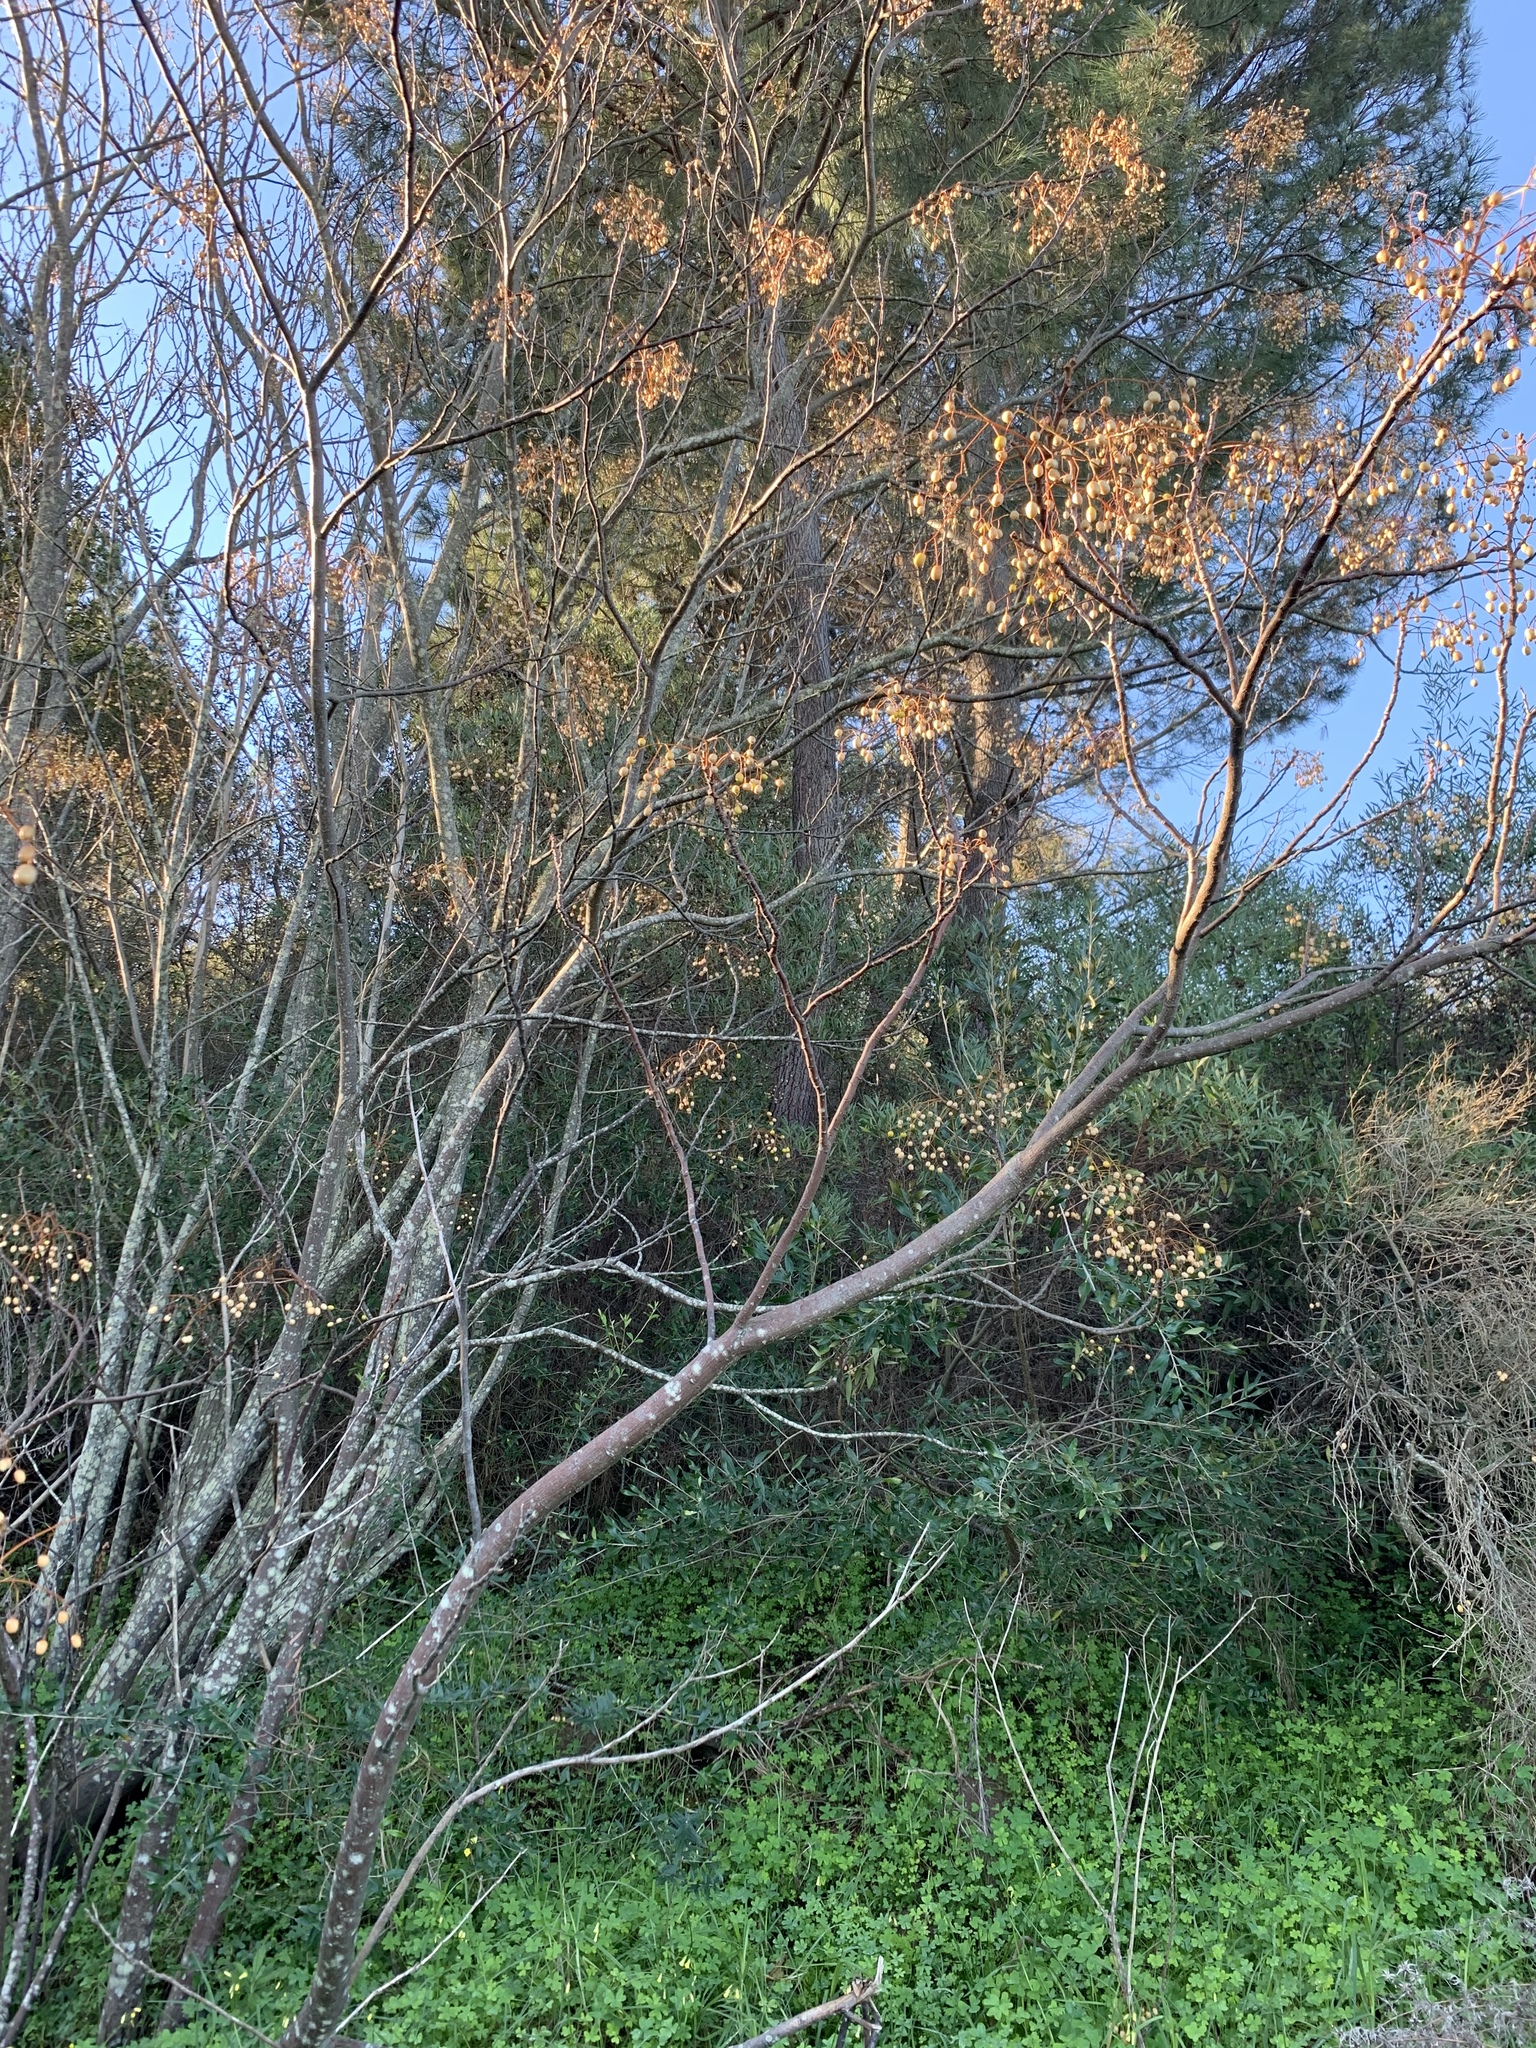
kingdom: Plantae
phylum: Tracheophyta
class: Magnoliopsida
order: Sapindales
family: Meliaceae
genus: Melia
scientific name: Melia azedarach
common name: Chinaberrytree
